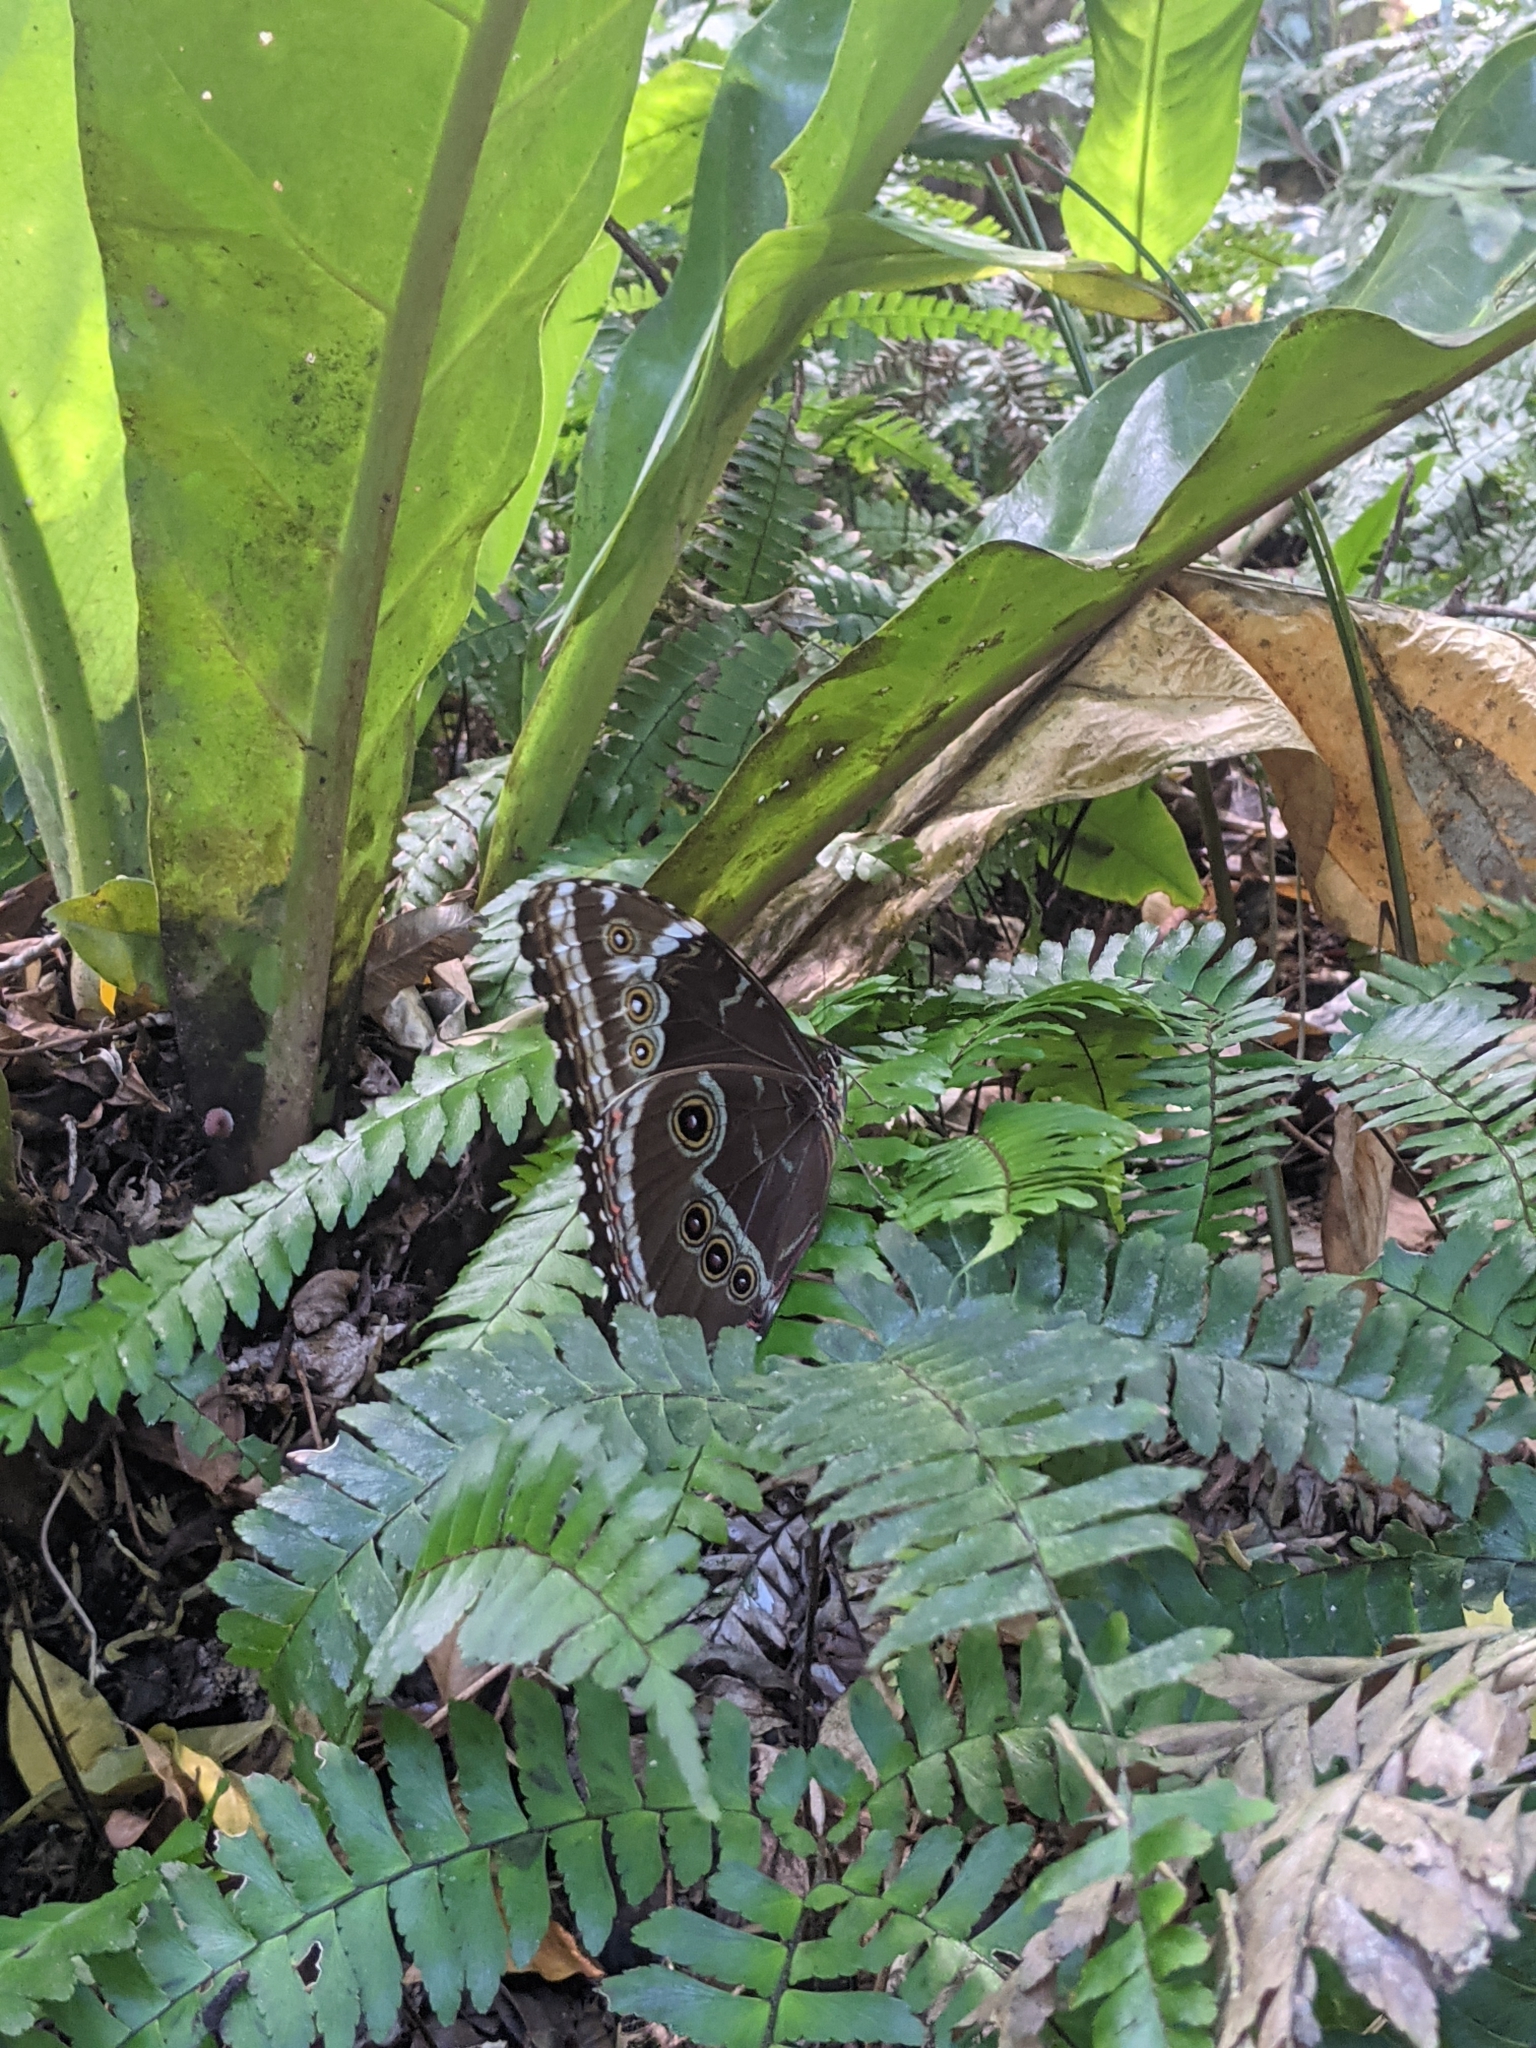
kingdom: Animalia
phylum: Arthropoda
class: Insecta
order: Lepidoptera
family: Nymphalidae
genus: Morpho
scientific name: Morpho helenor
